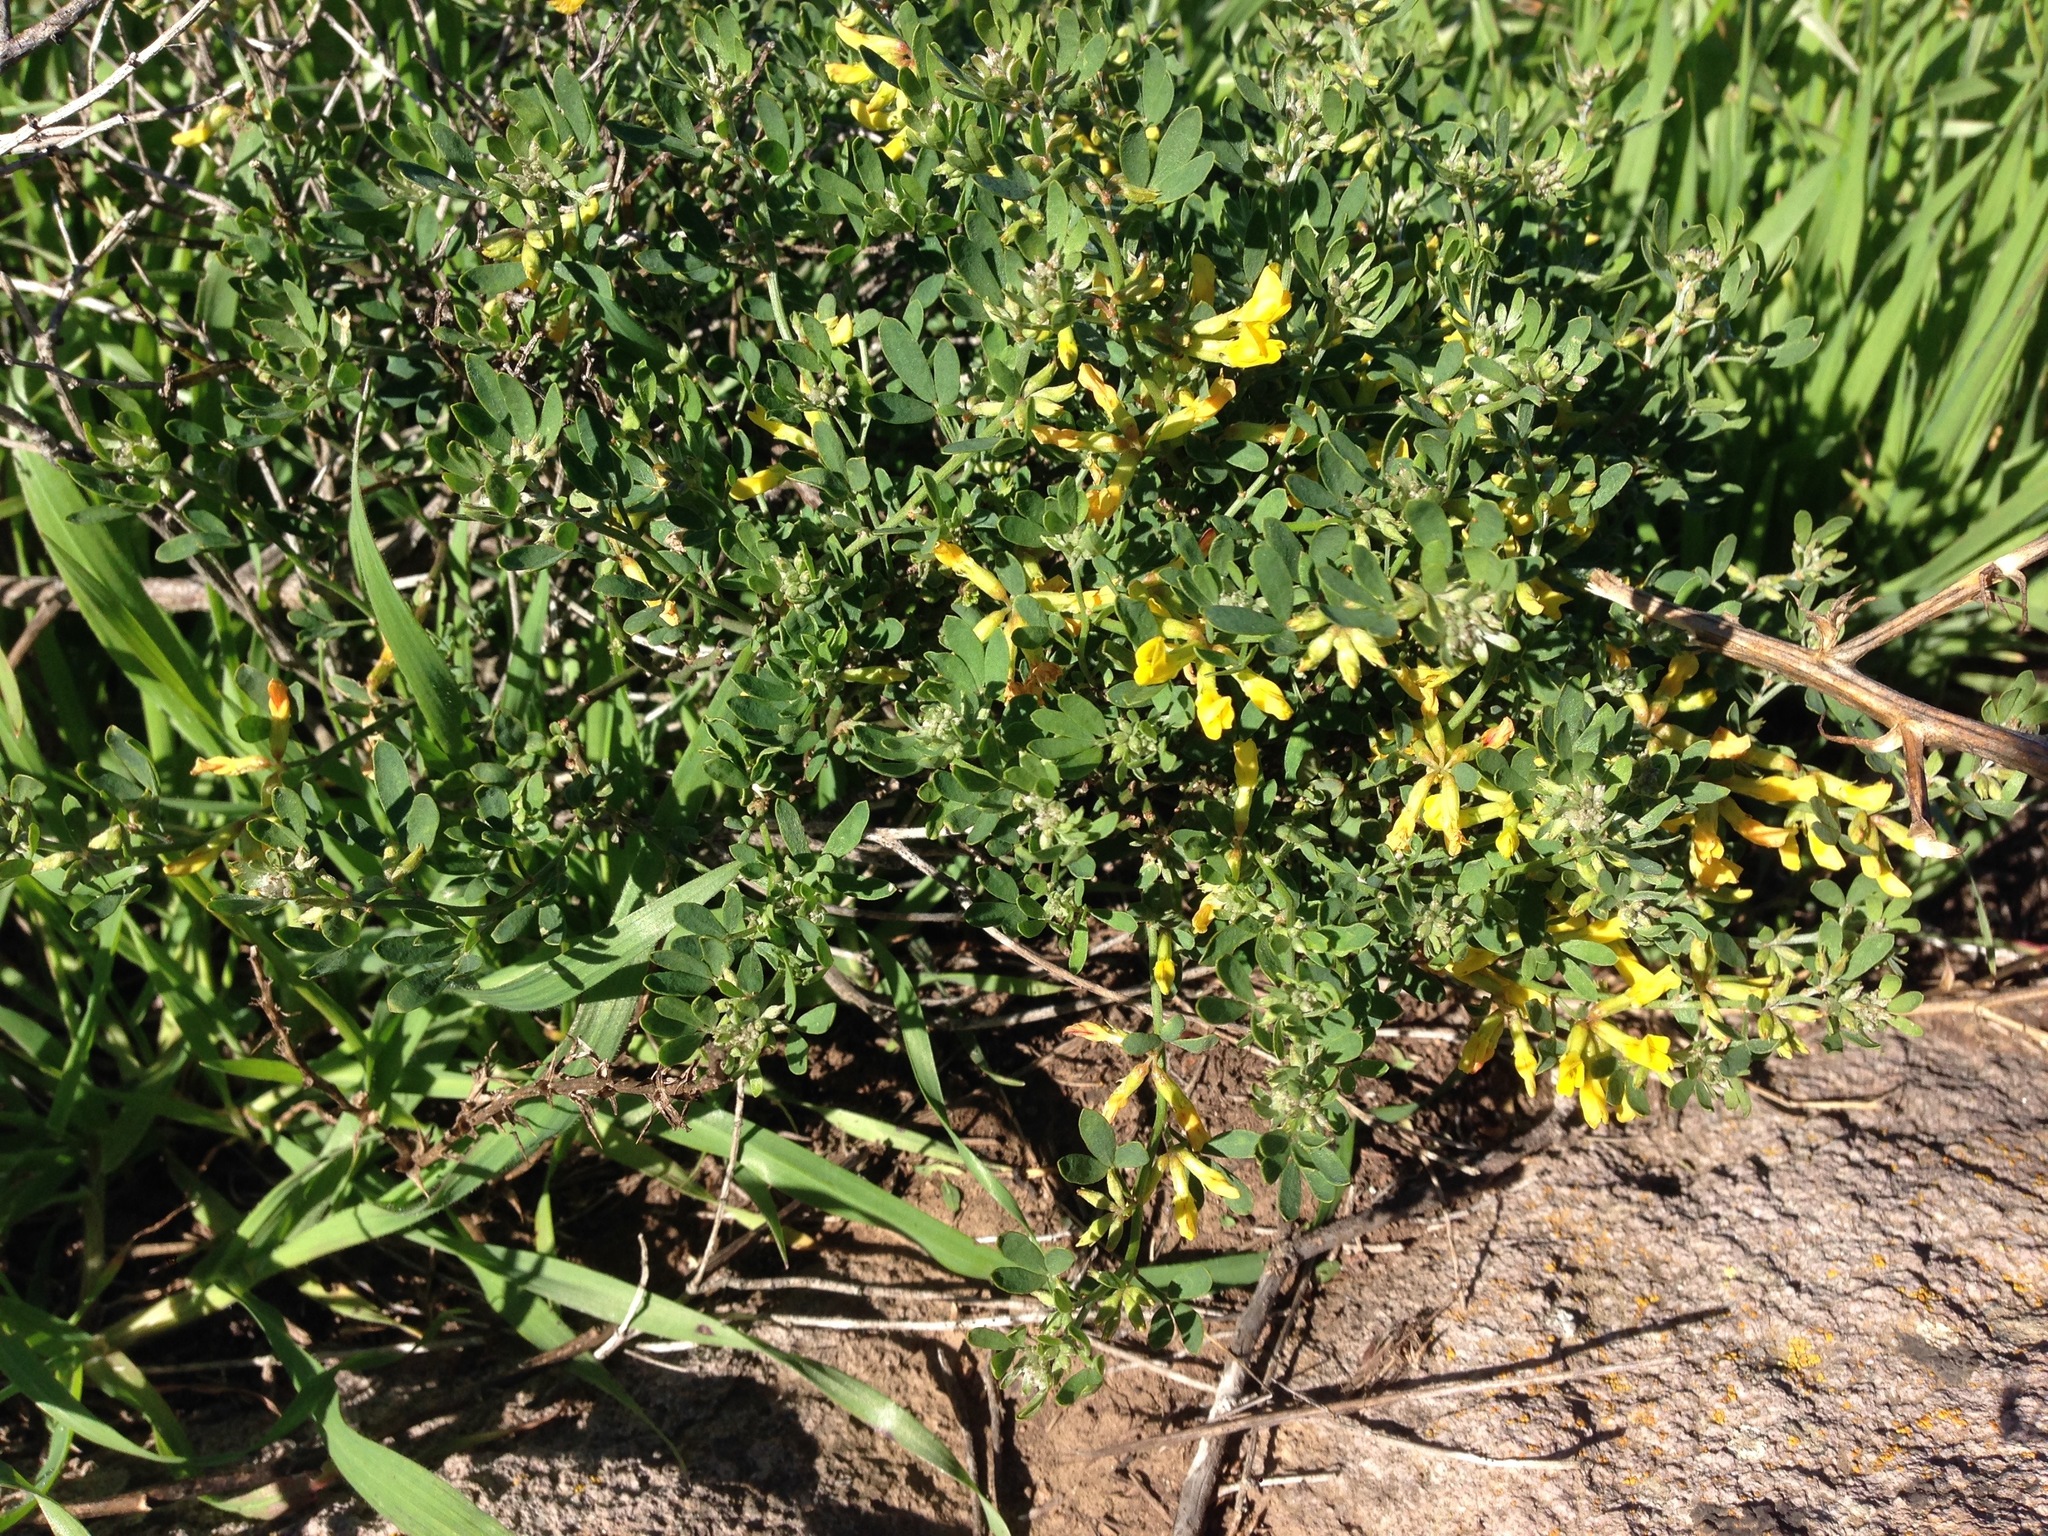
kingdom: Plantae
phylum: Tracheophyta
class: Magnoliopsida
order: Fabales
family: Fabaceae
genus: Acmispon
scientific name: Acmispon dendroideus
